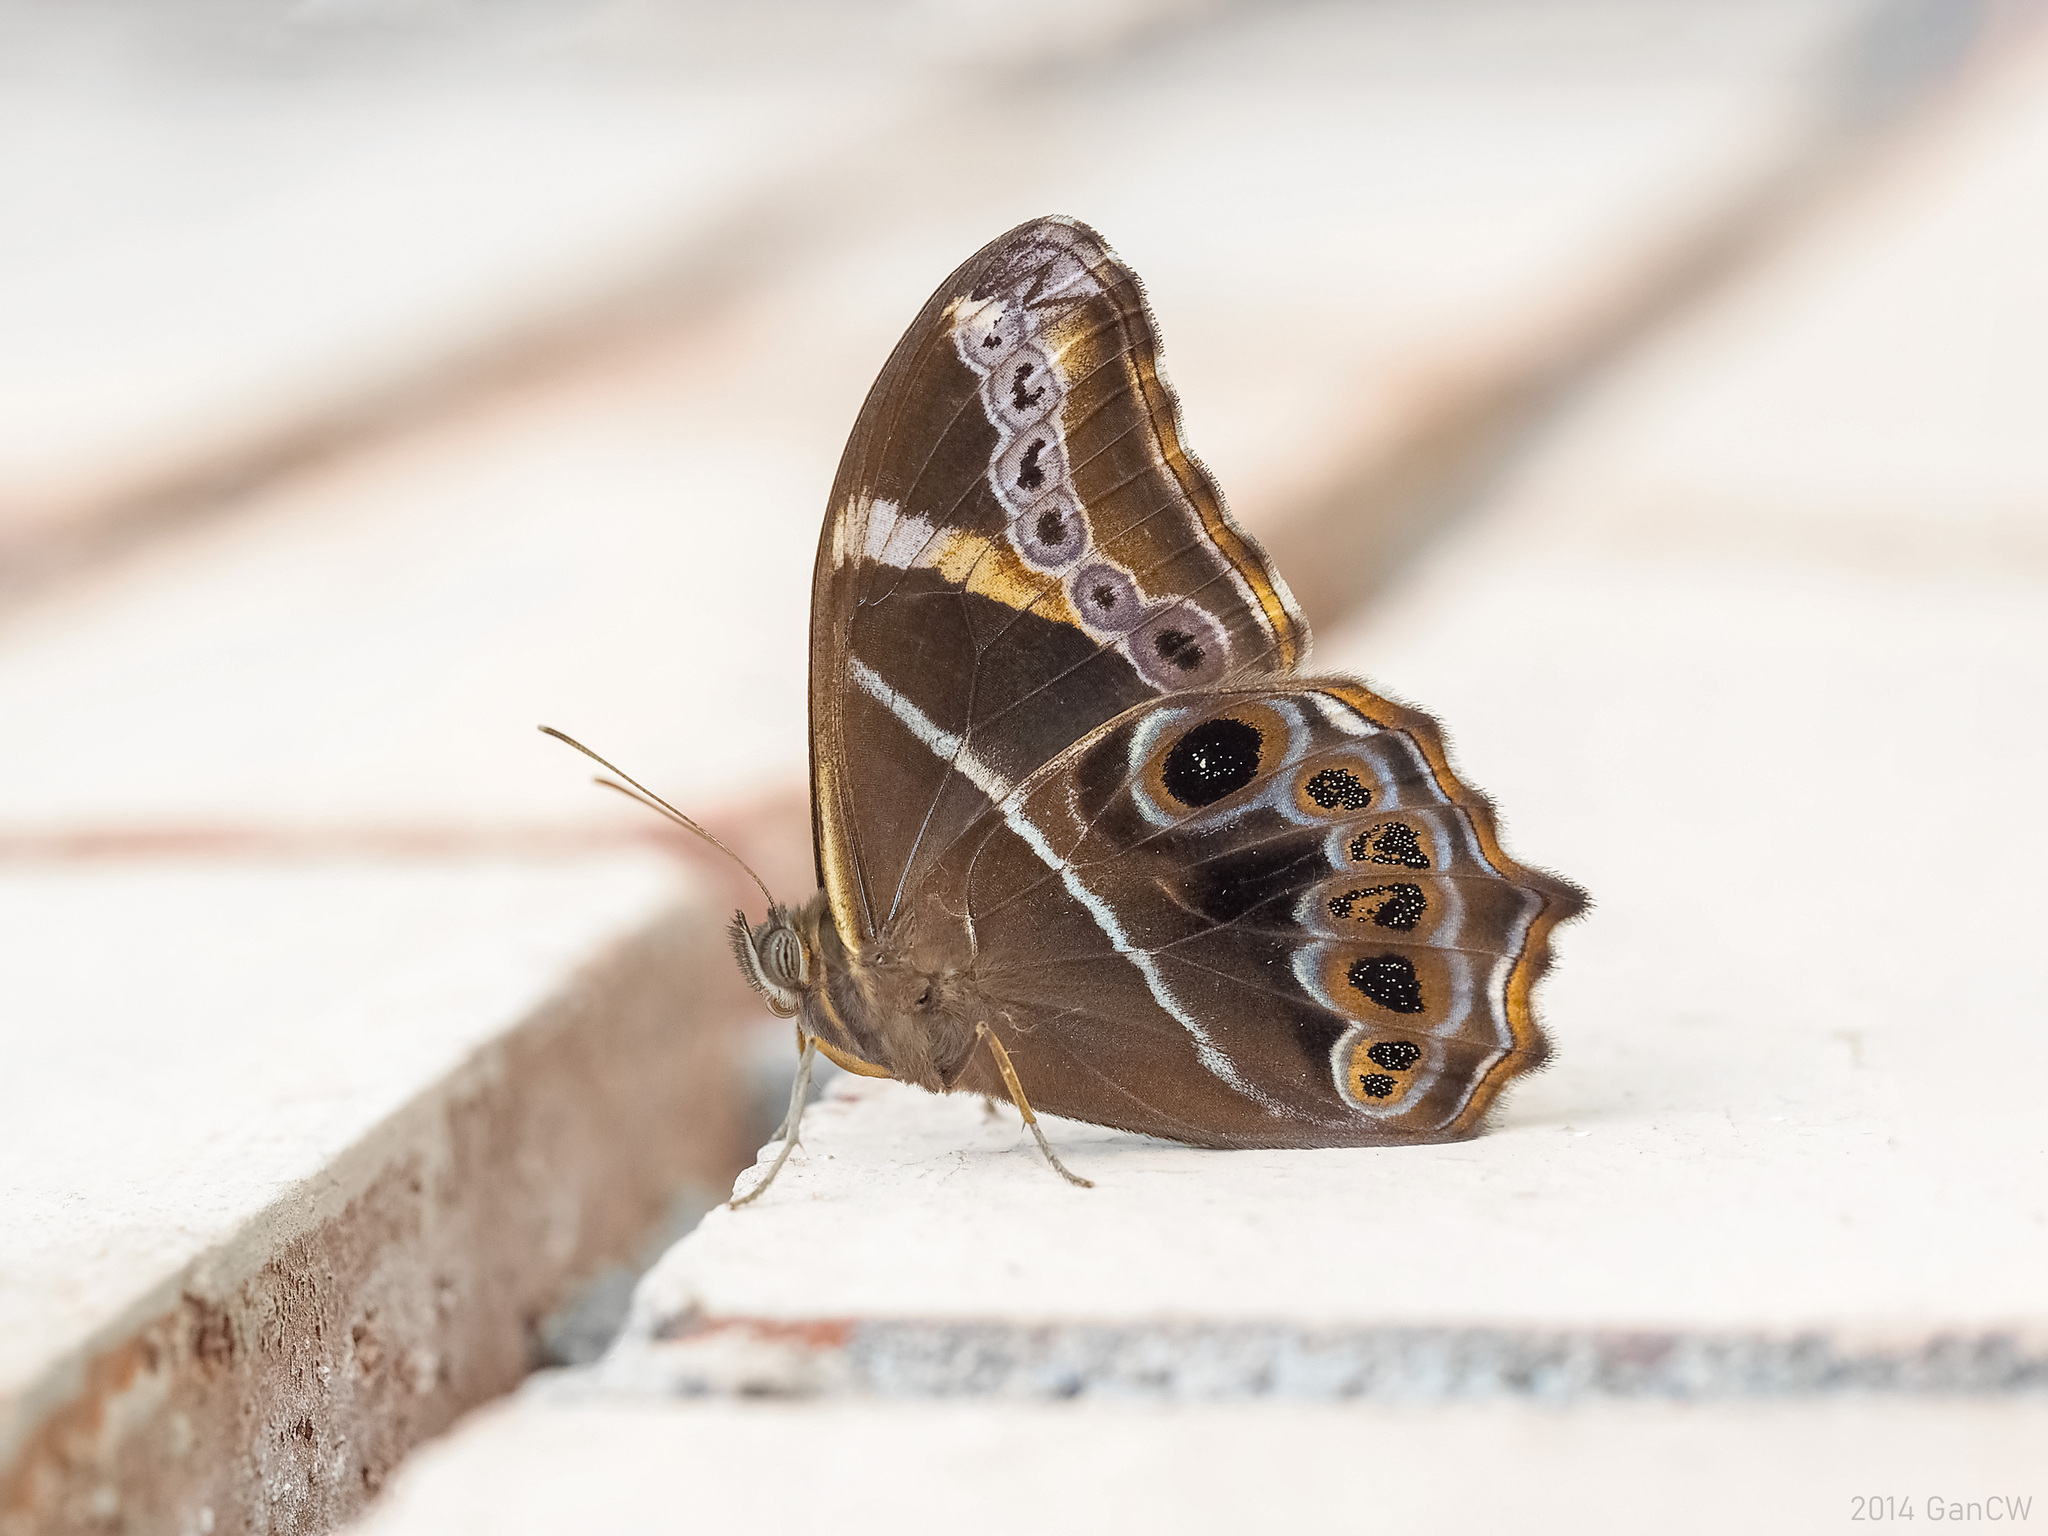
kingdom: Animalia
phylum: Arthropoda
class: Insecta
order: Lepidoptera
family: Nymphalidae
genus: Lethe
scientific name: Lethe europa
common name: Bamboo treebrown
